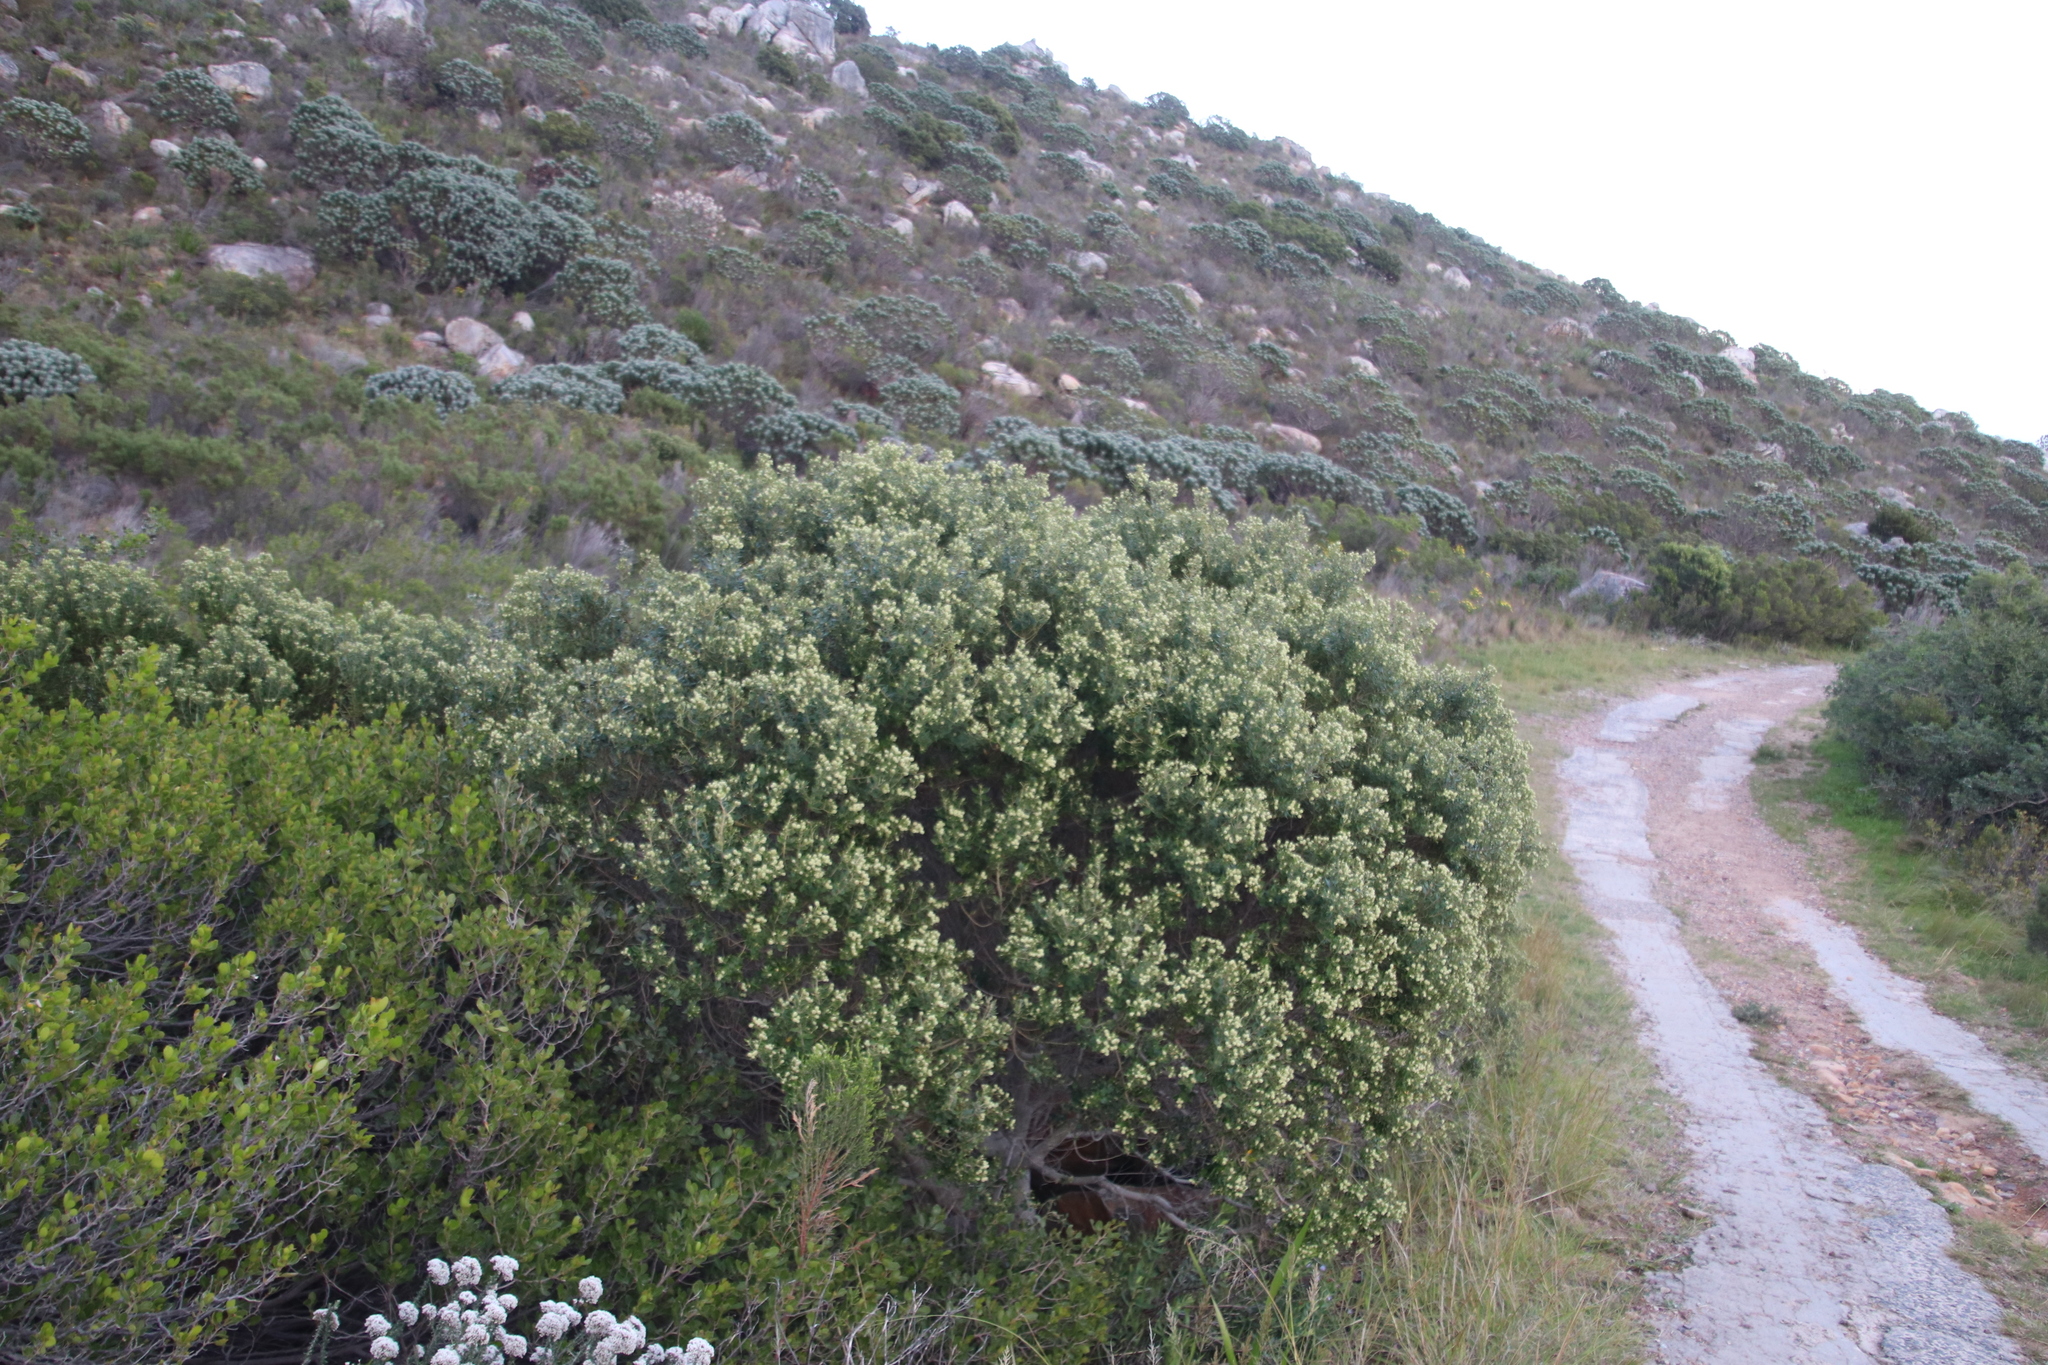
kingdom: Plantae
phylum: Tracheophyta
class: Magnoliopsida
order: Rosales
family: Rhamnaceae
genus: Phylica
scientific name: Phylica buxifolia
